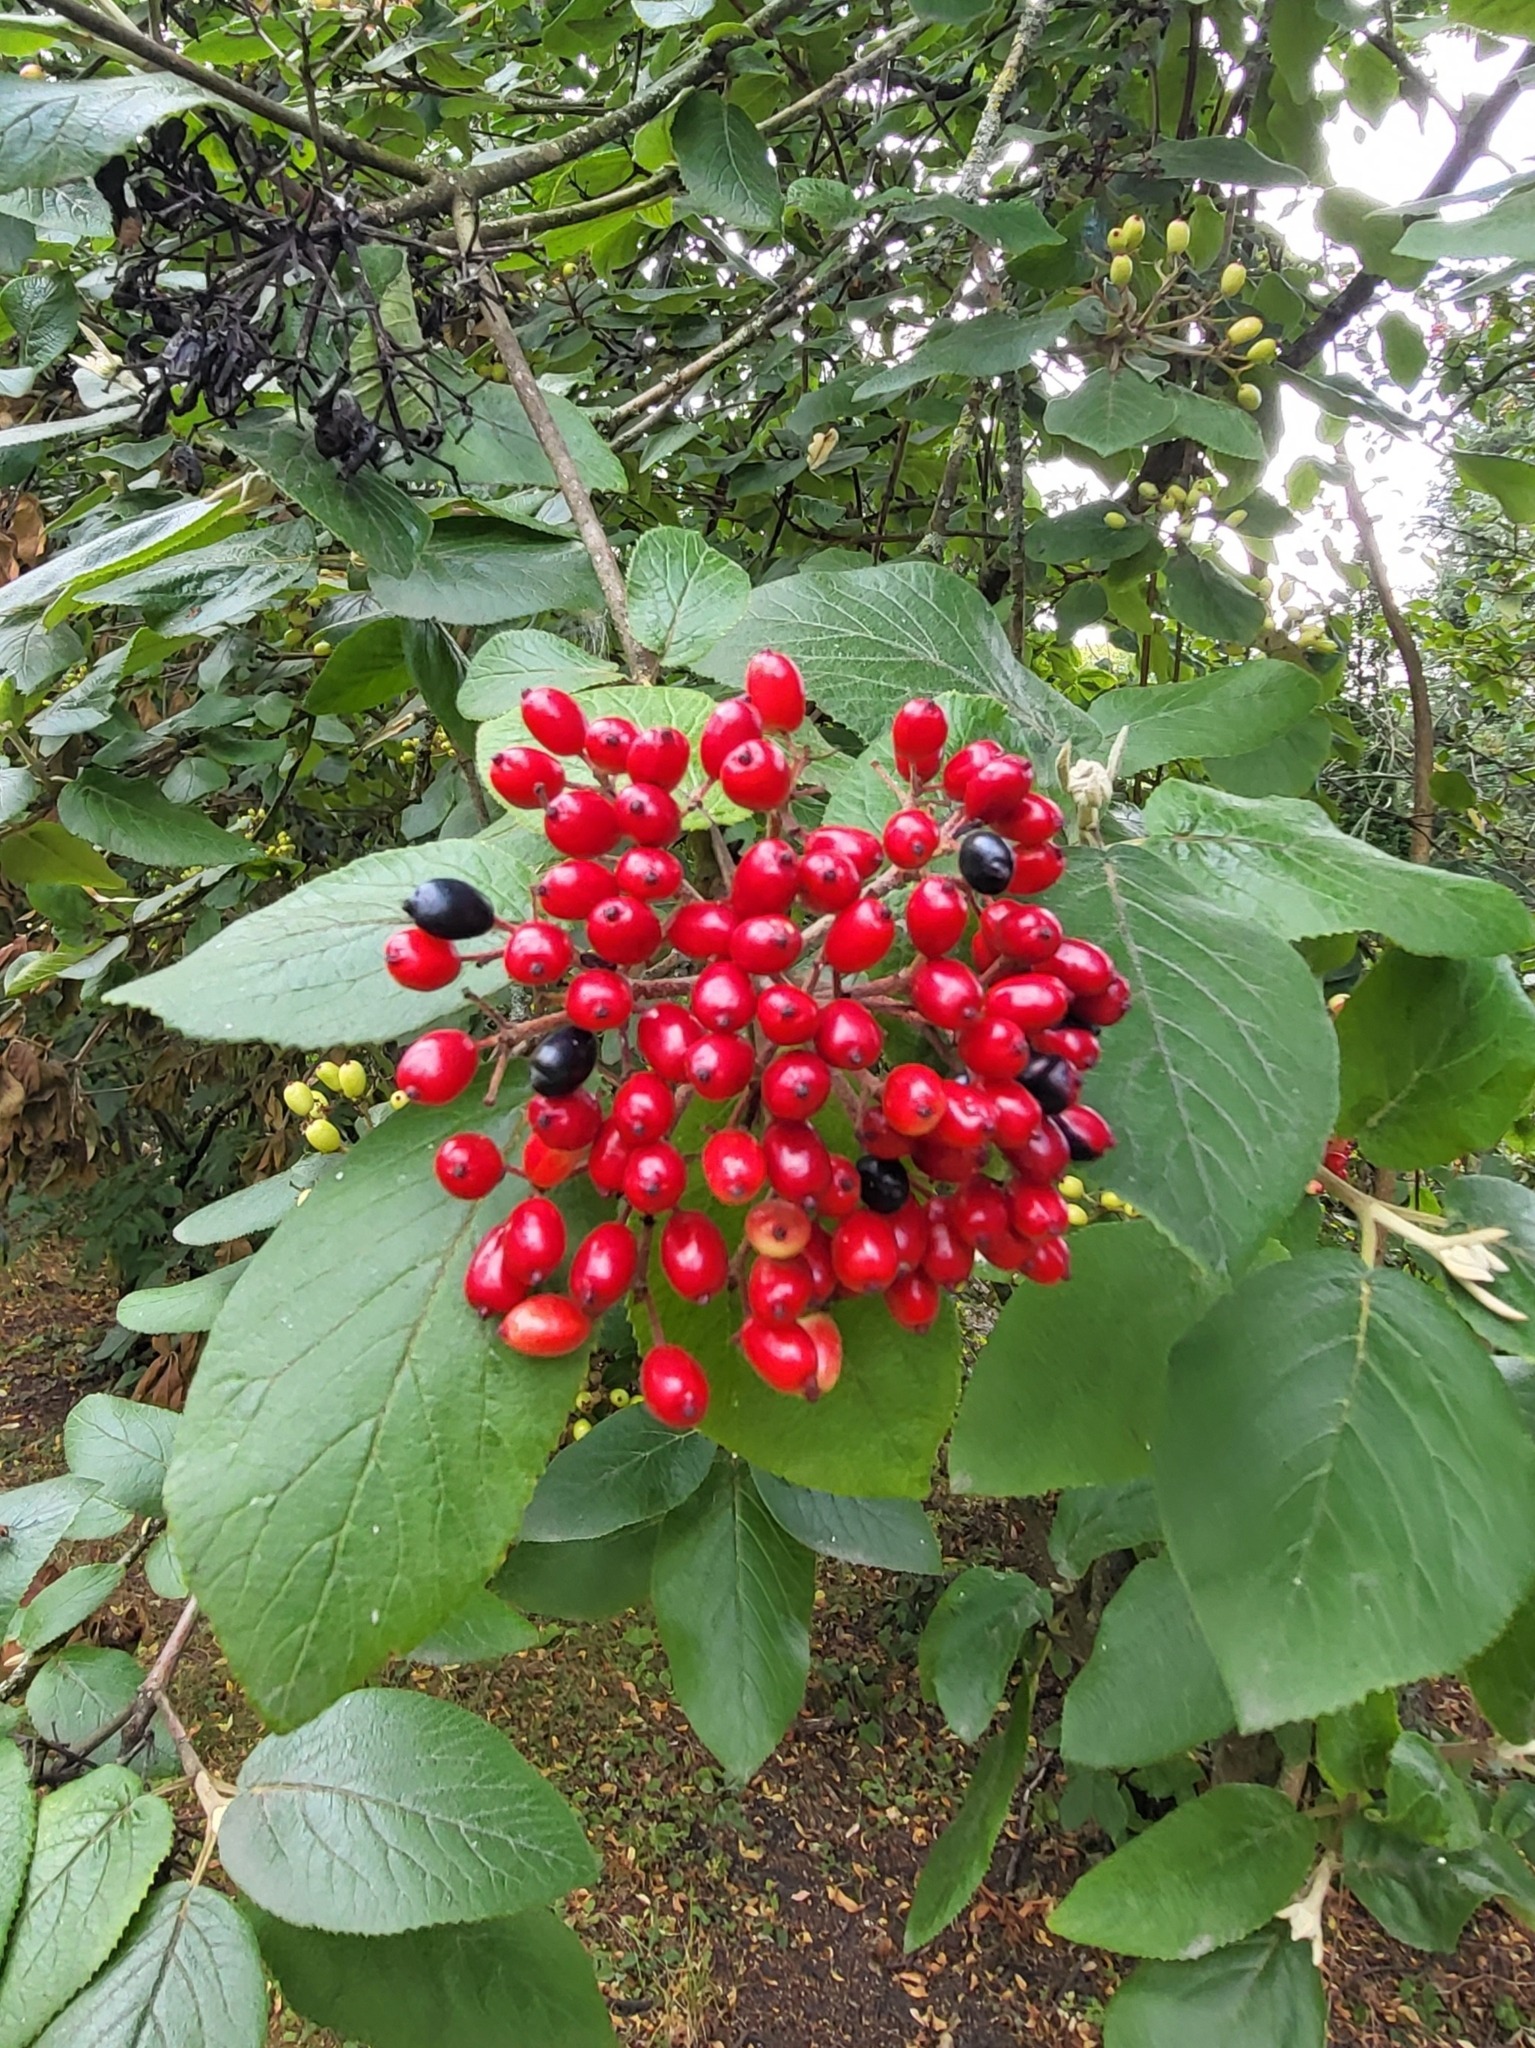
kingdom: Plantae
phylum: Tracheophyta
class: Magnoliopsida
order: Dipsacales
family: Viburnaceae
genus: Viburnum
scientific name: Viburnum lantana
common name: Wayfaring tree
